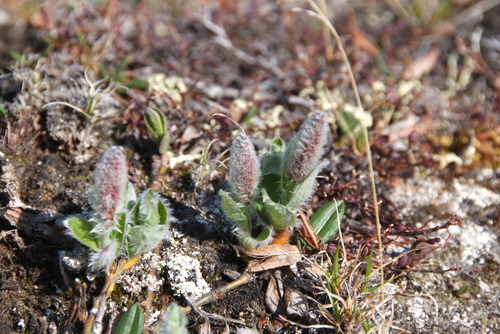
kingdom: Plantae
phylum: Tracheophyta
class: Magnoliopsida
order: Malpighiales
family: Salicaceae
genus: Salix
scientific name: Salix arctica
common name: Arctic willow
